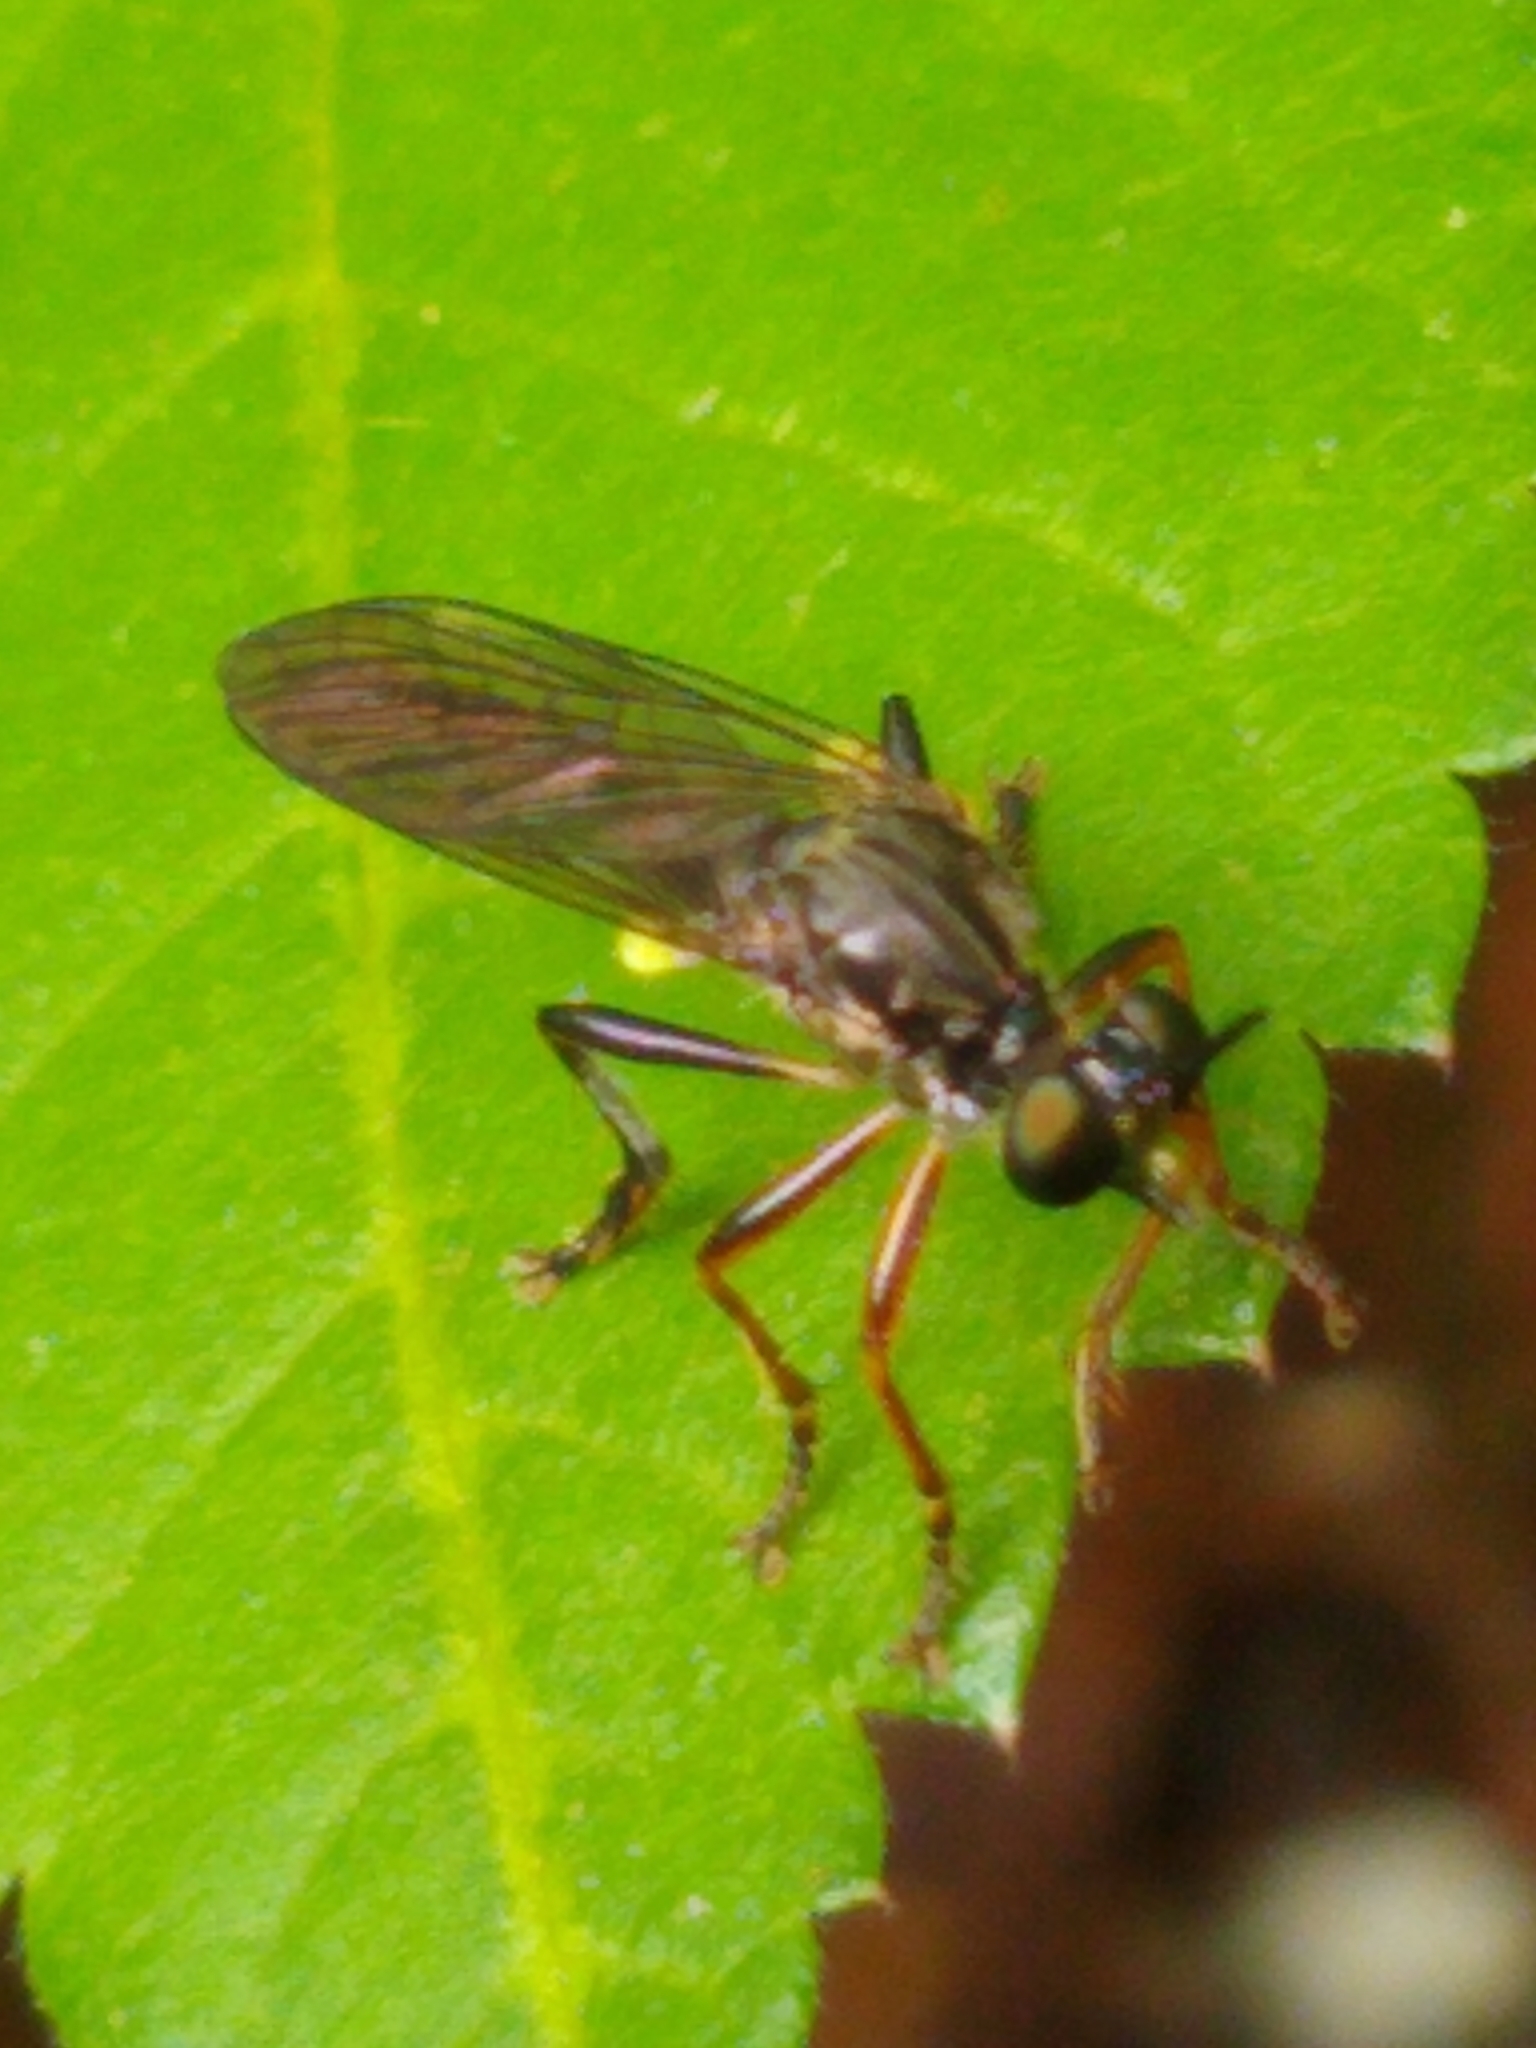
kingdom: Animalia
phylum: Arthropoda
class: Insecta
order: Diptera
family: Asilidae
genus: Dioctria
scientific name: Dioctria hyalipennis
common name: Stripe-legged robberfly
